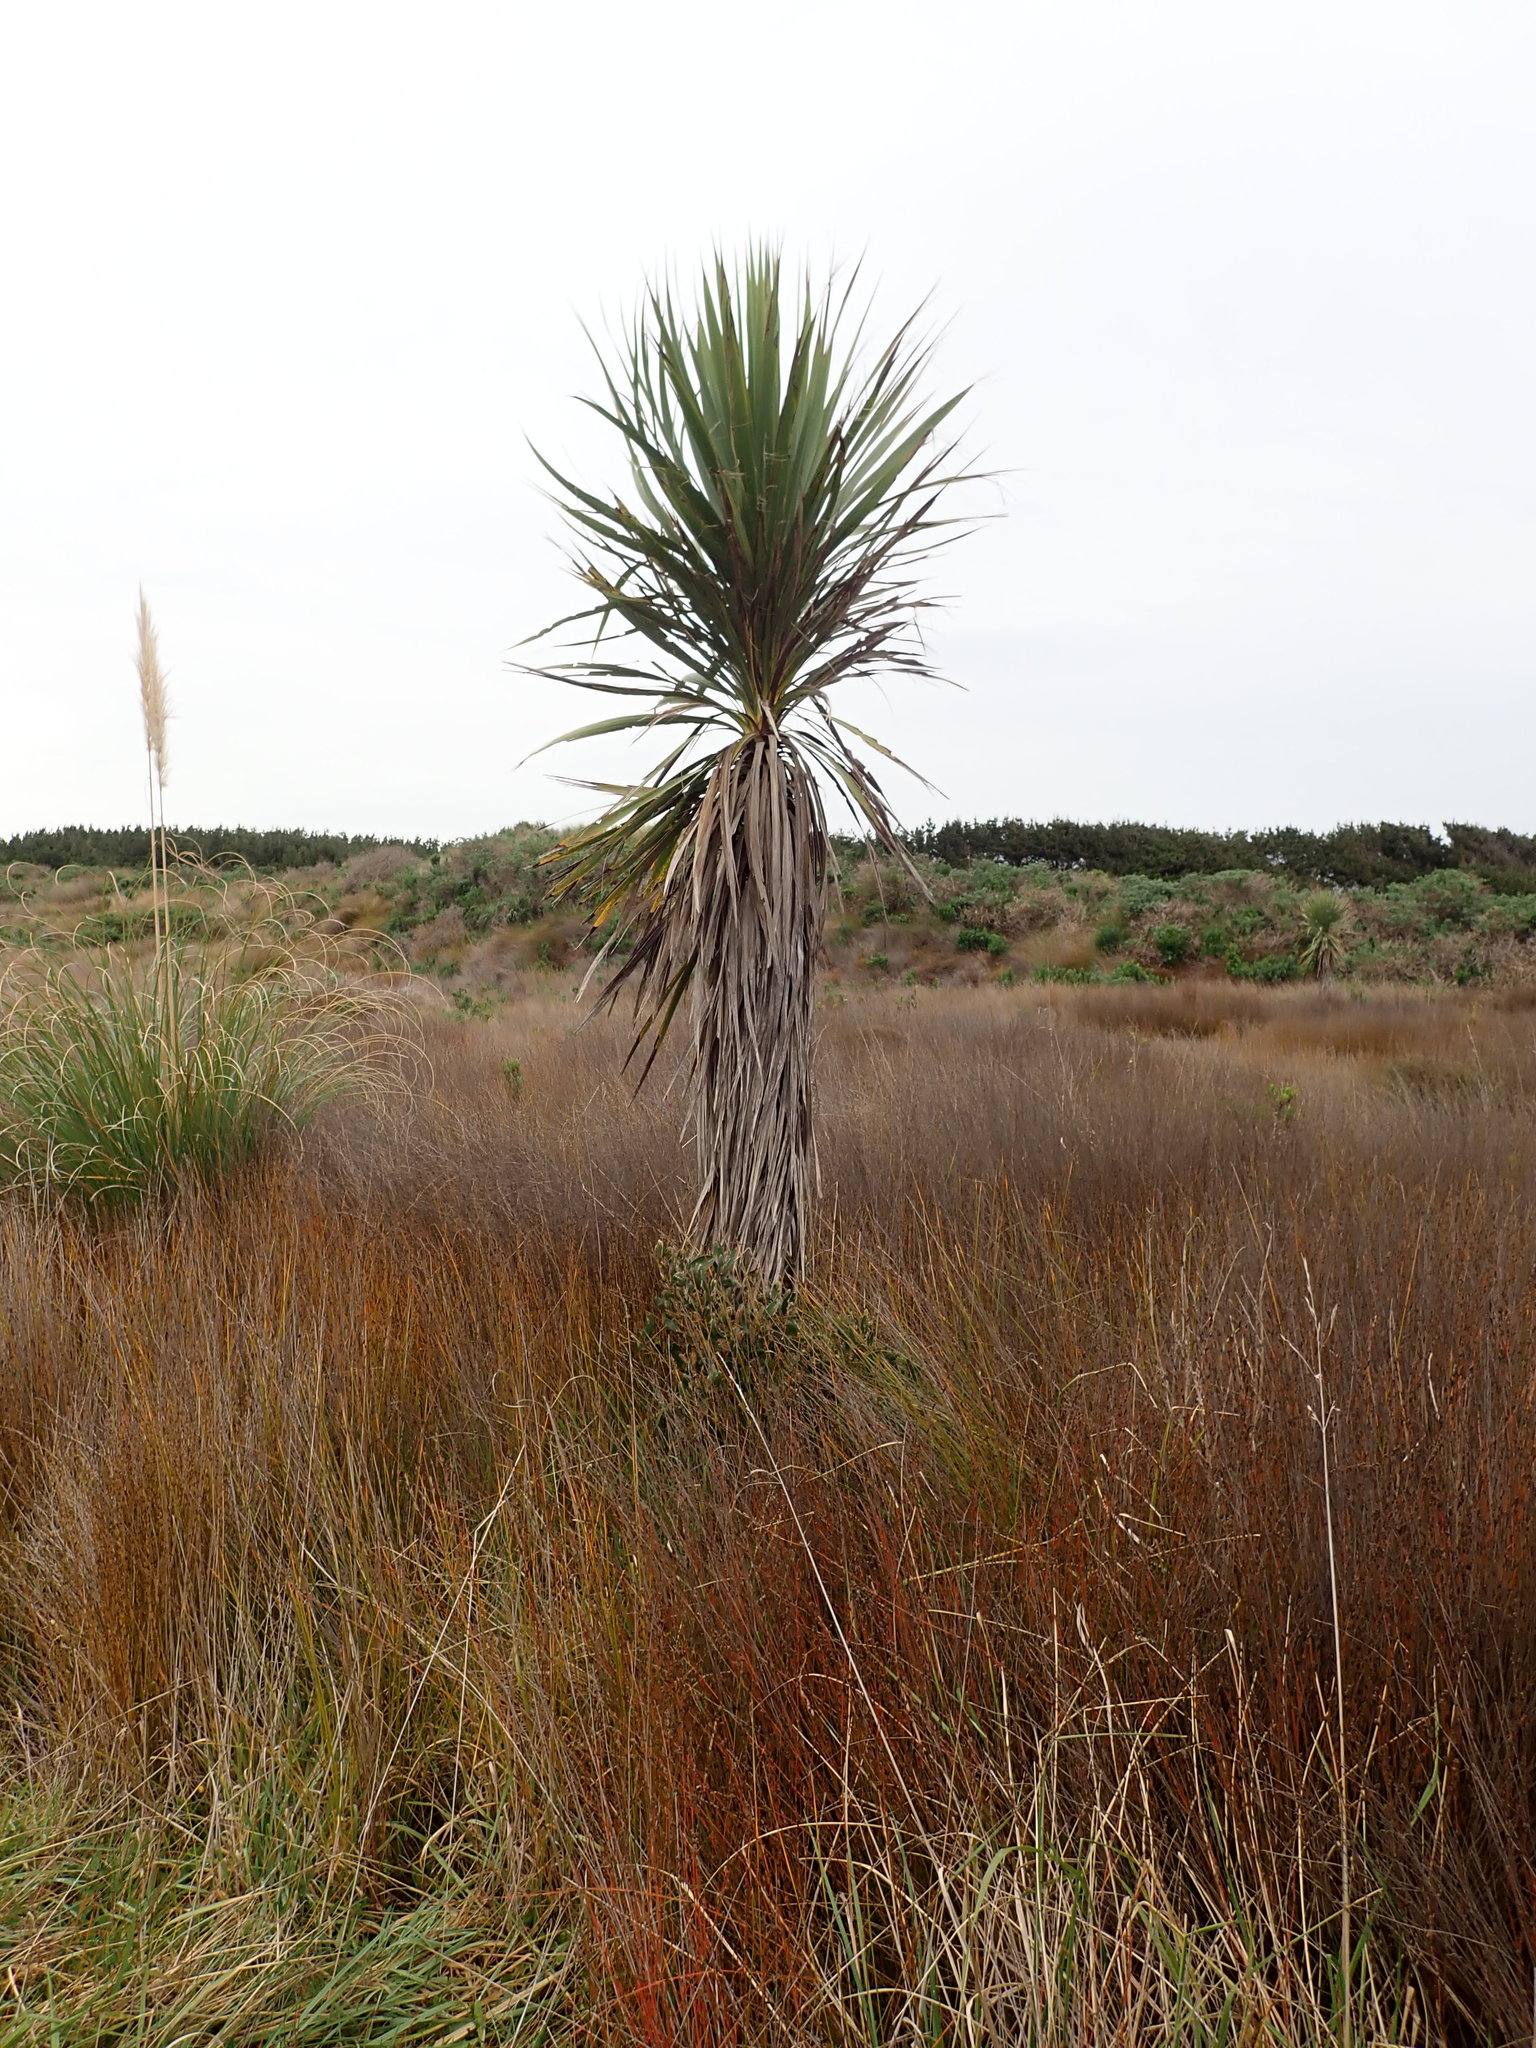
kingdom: Plantae
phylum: Tracheophyta
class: Liliopsida
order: Asparagales
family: Asparagaceae
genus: Cordyline
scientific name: Cordyline australis
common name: Cabbage-palm
